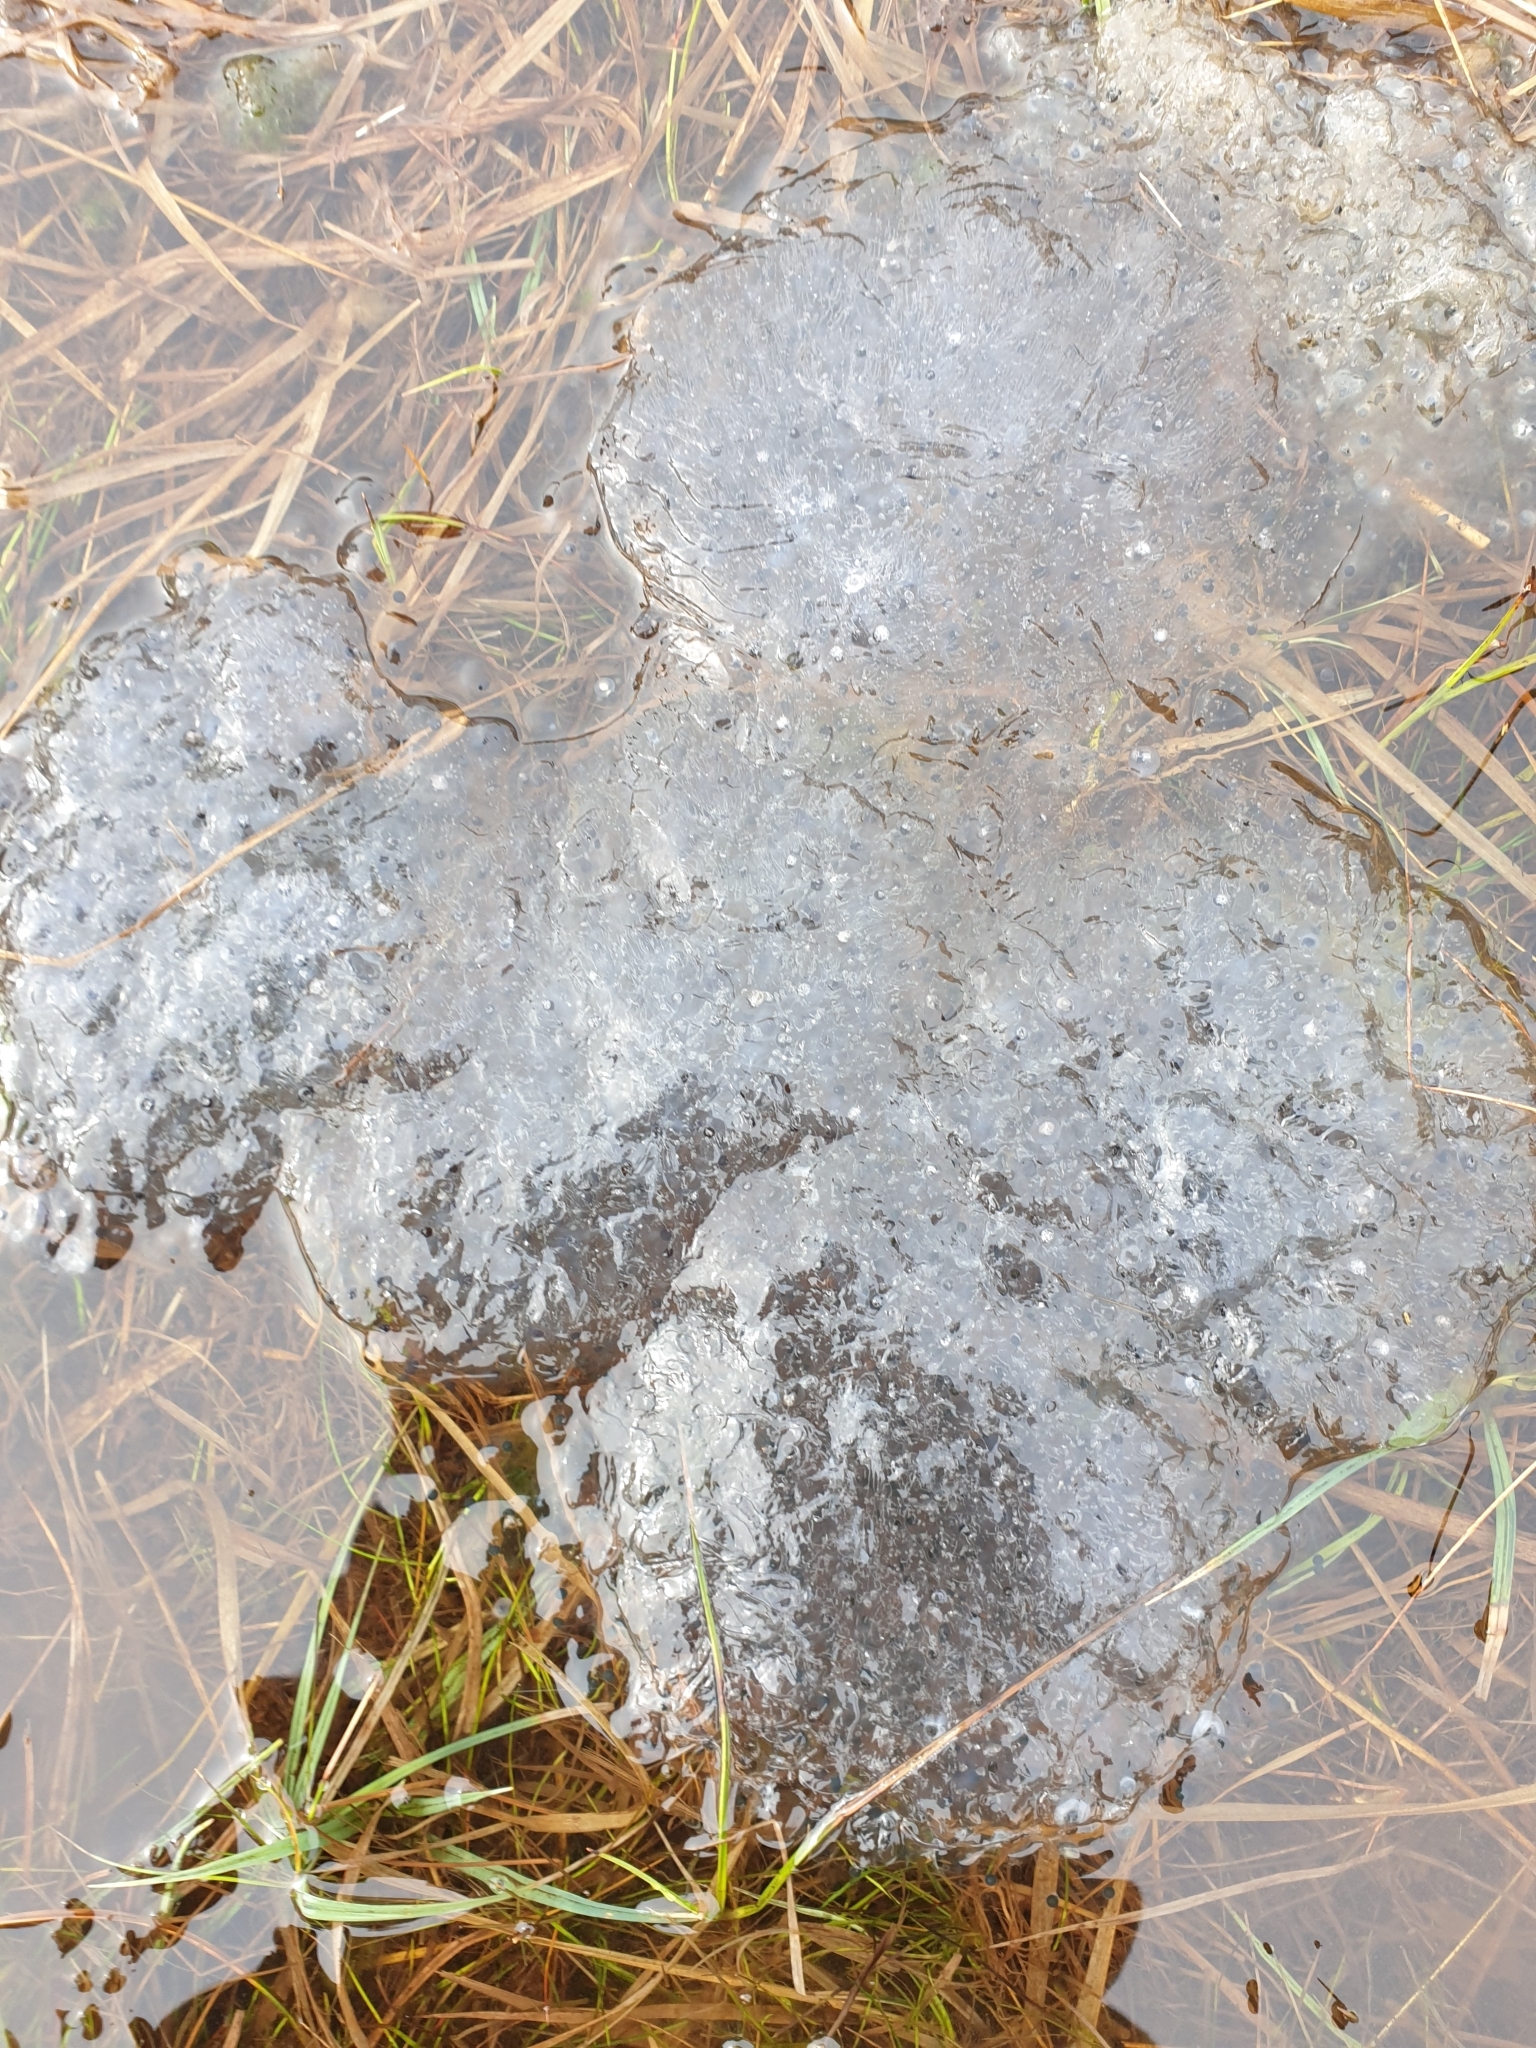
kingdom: Animalia
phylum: Chordata
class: Amphibia
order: Anura
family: Ranidae
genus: Rana
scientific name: Rana temporaria
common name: Common frog
